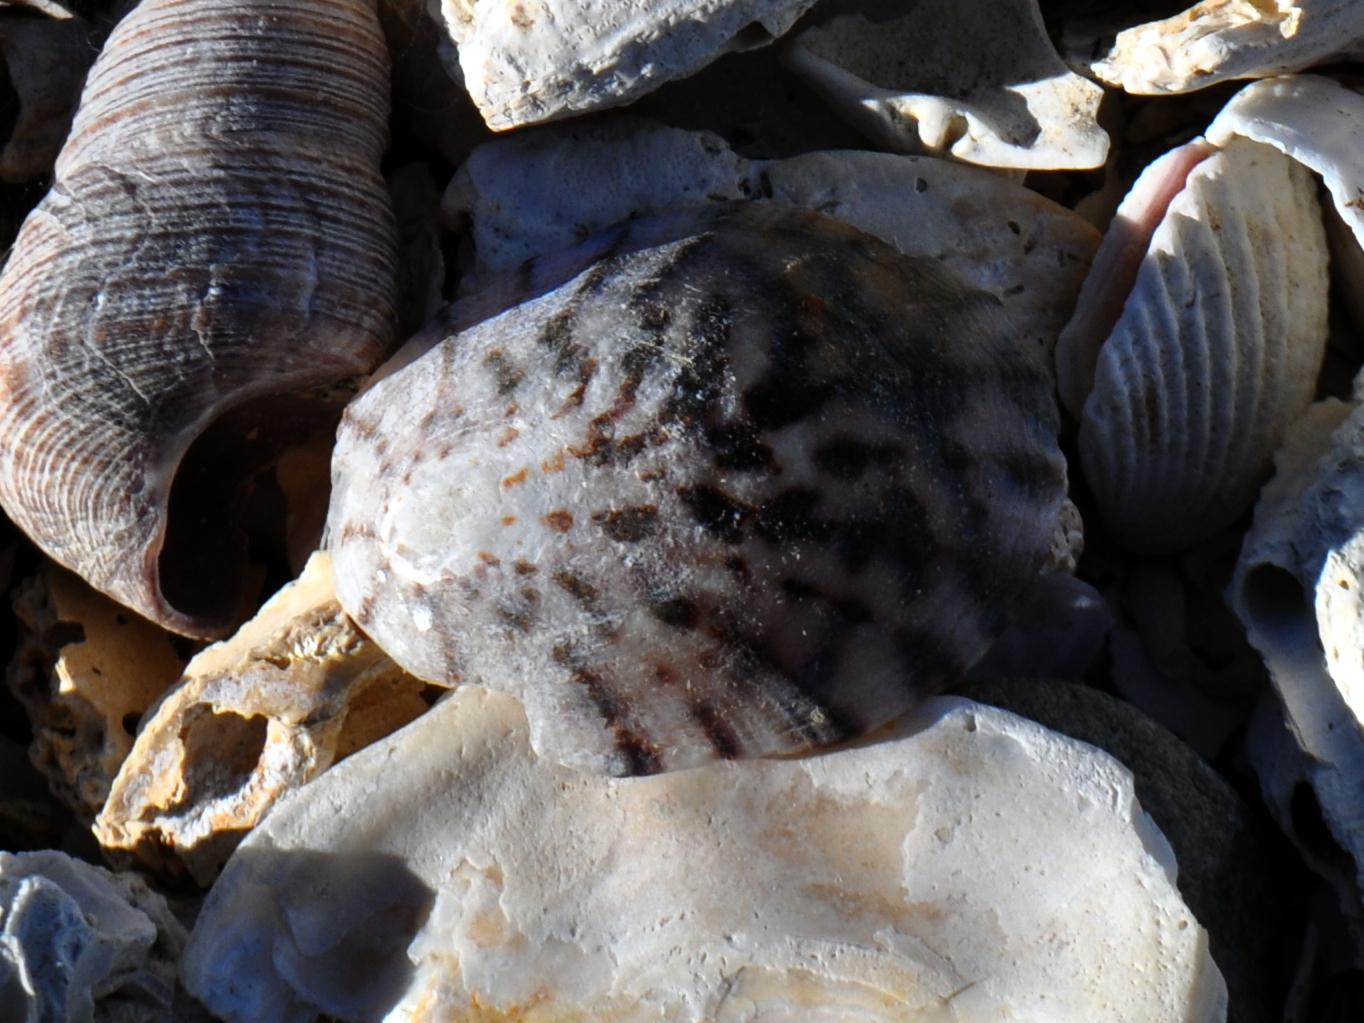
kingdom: Animalia
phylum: Mollusca
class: Gastropoda
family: Nacellidae
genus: Cellana
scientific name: Cellana radians
